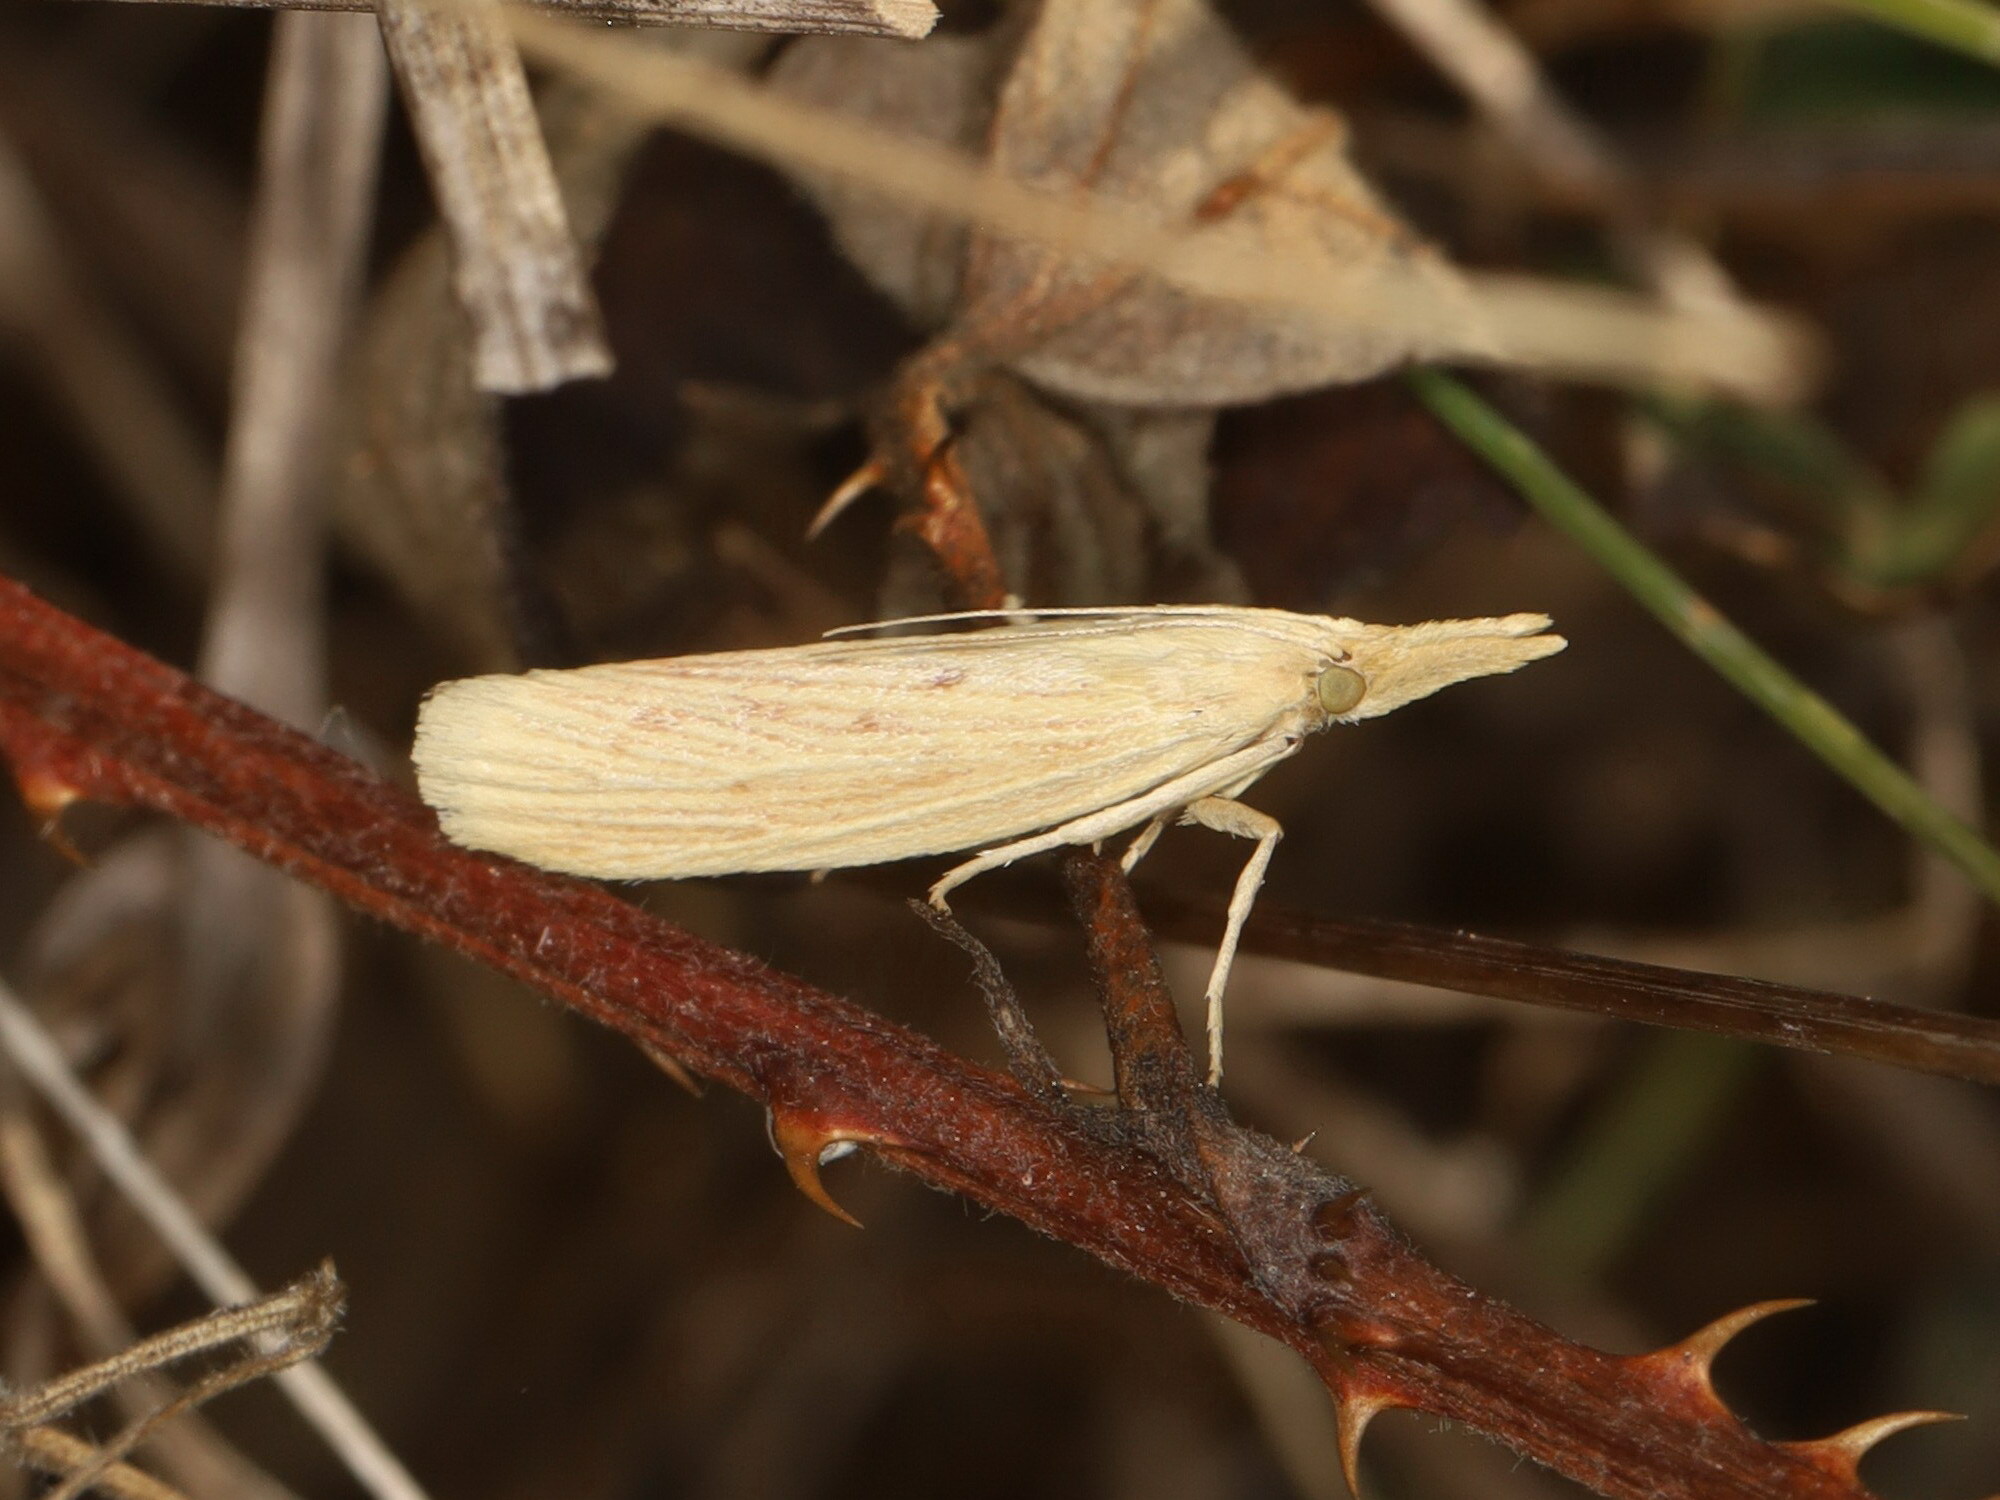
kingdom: Animalia
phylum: Arthropoda
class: Insecta
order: Lepidoptera
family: Pyralidae
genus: Ematheudes
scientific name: Ematheudes punctellus
